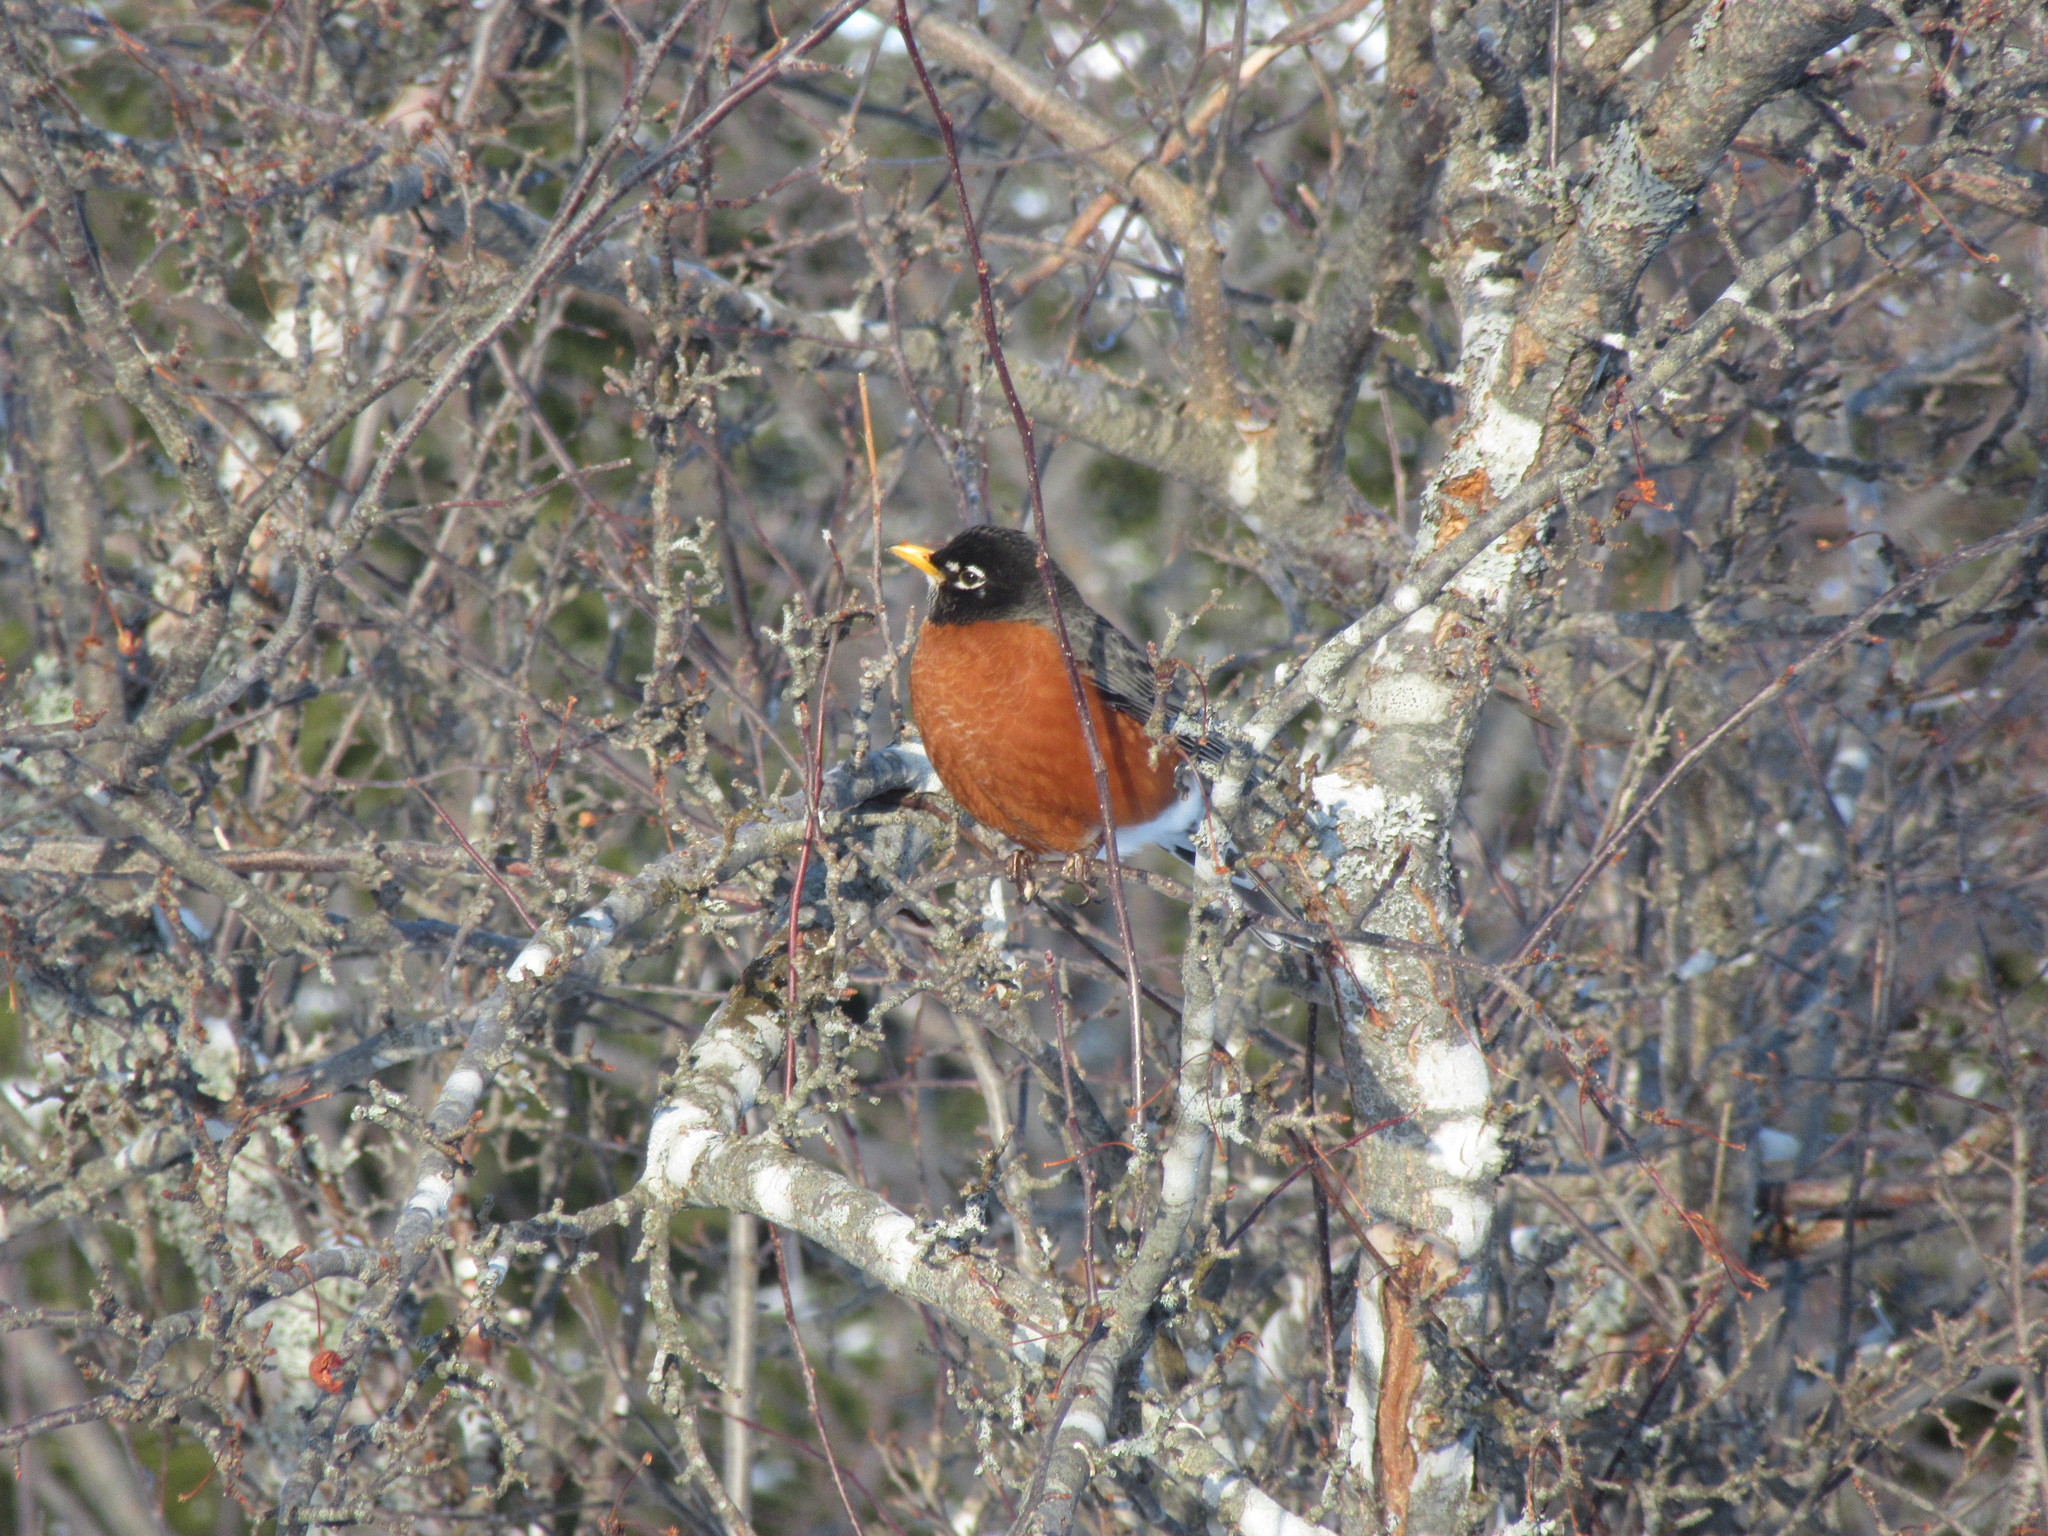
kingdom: Animalia
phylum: Chordata
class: Aves
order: Passeriformes
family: Turdidae
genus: Turdus
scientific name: Turdus migratorius
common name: American robin
